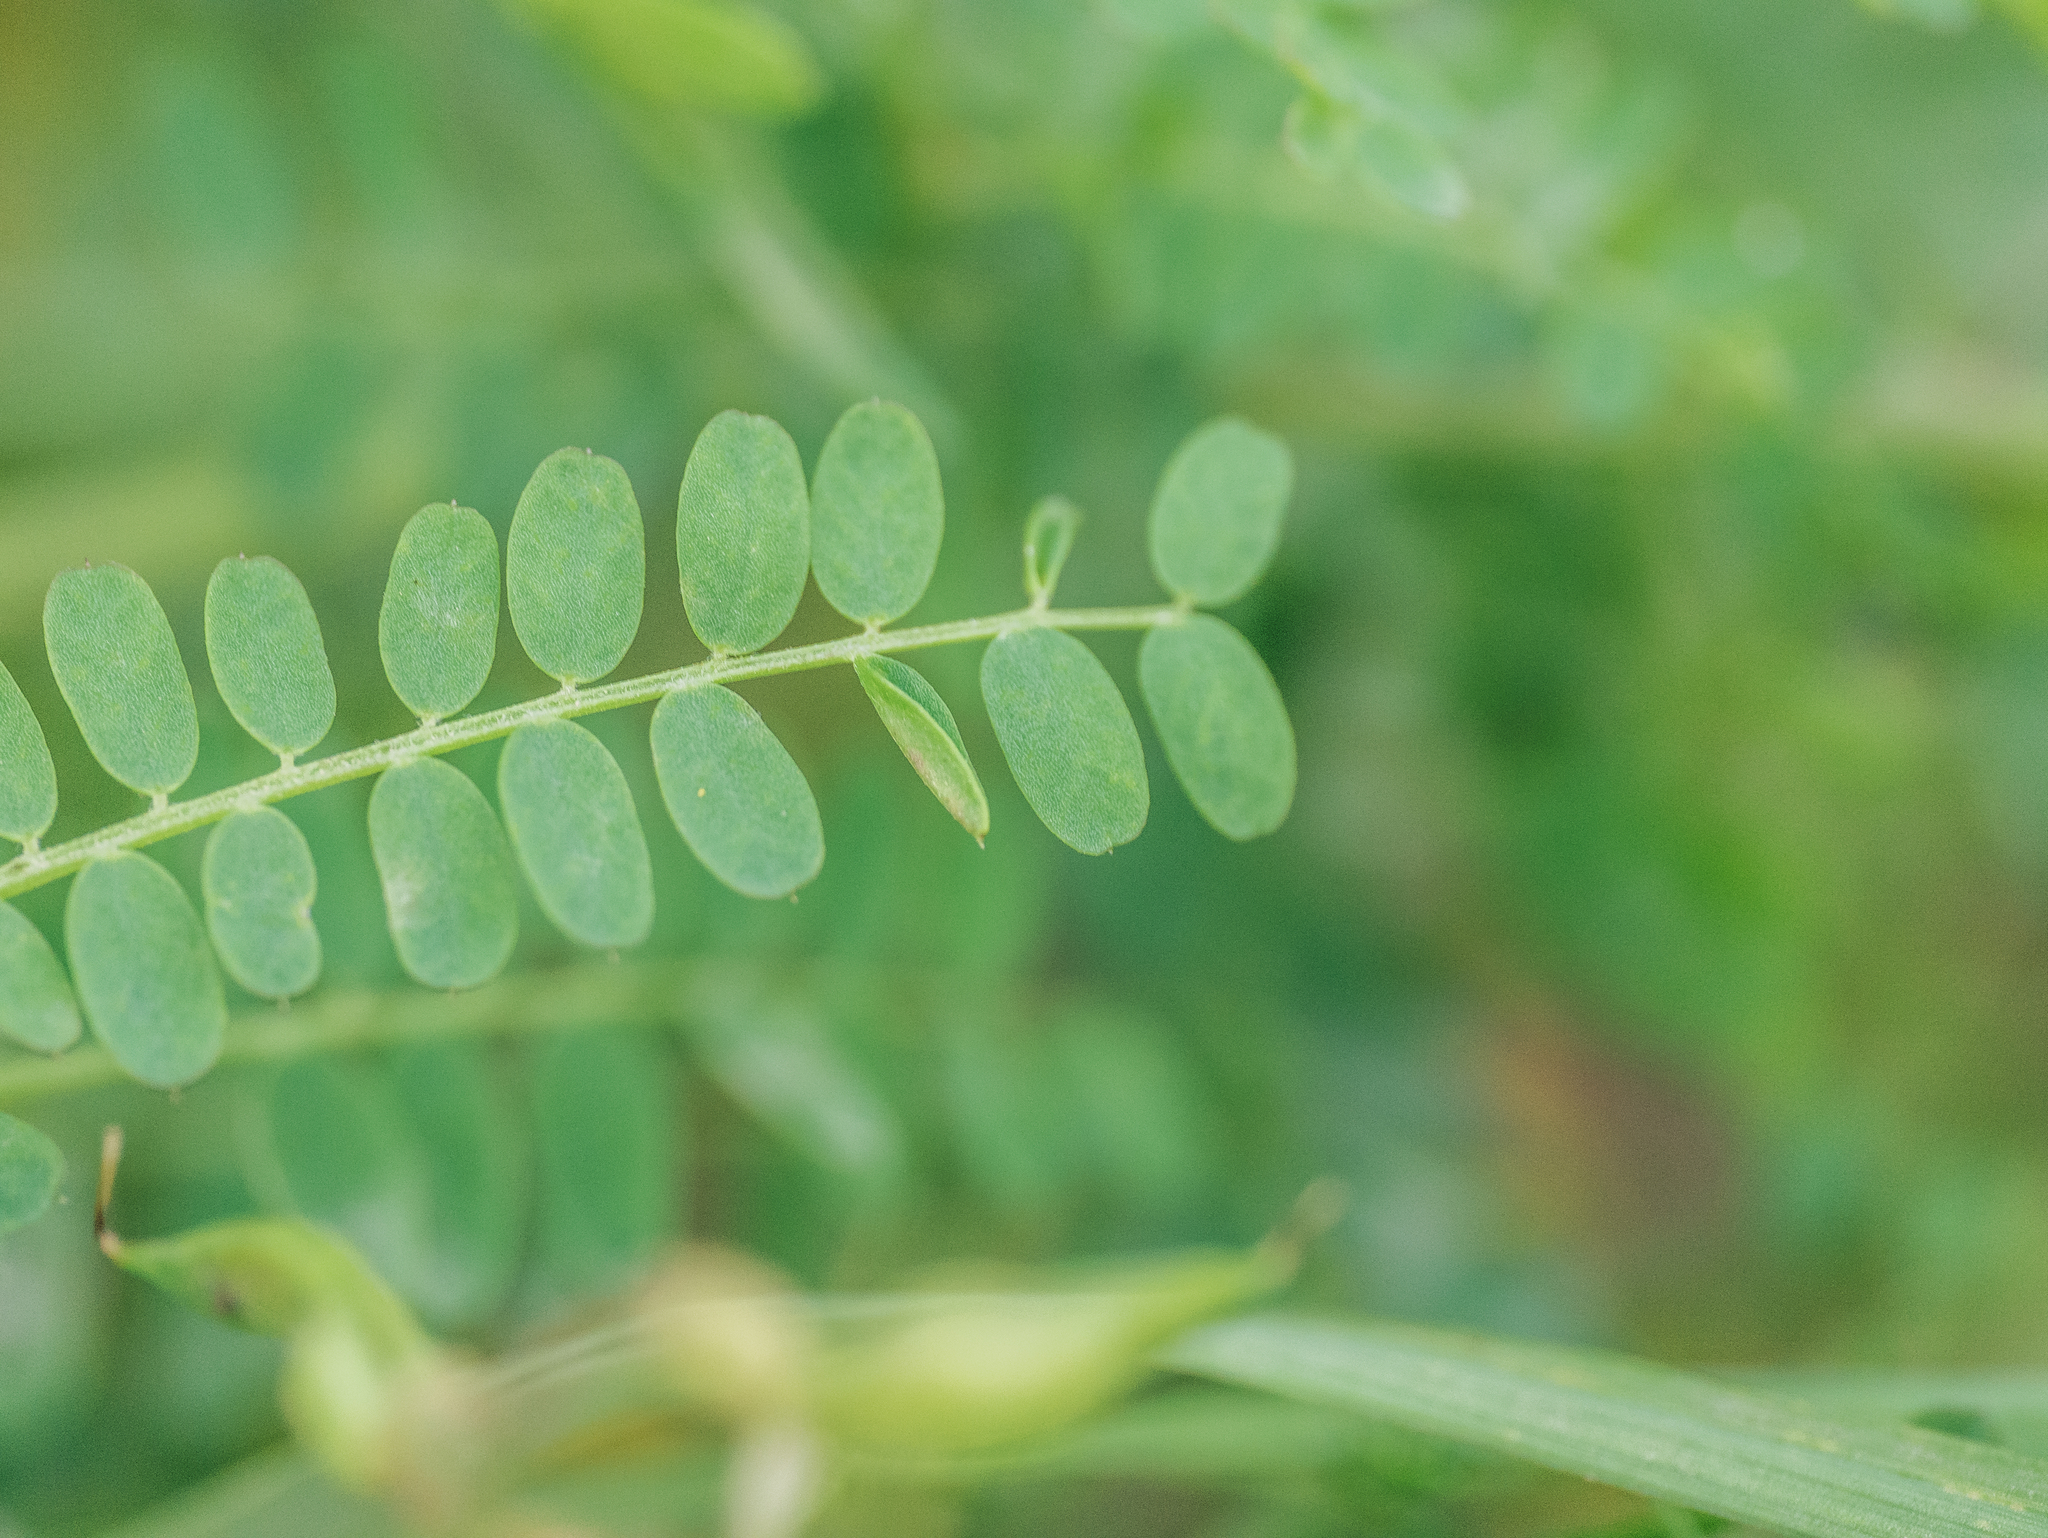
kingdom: Plantae
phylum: Tracheophyta
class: Magnoliopsida
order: Fabales
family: Fabaceae
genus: Vicia
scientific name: Vicia sylvatica
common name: Wood vetch
